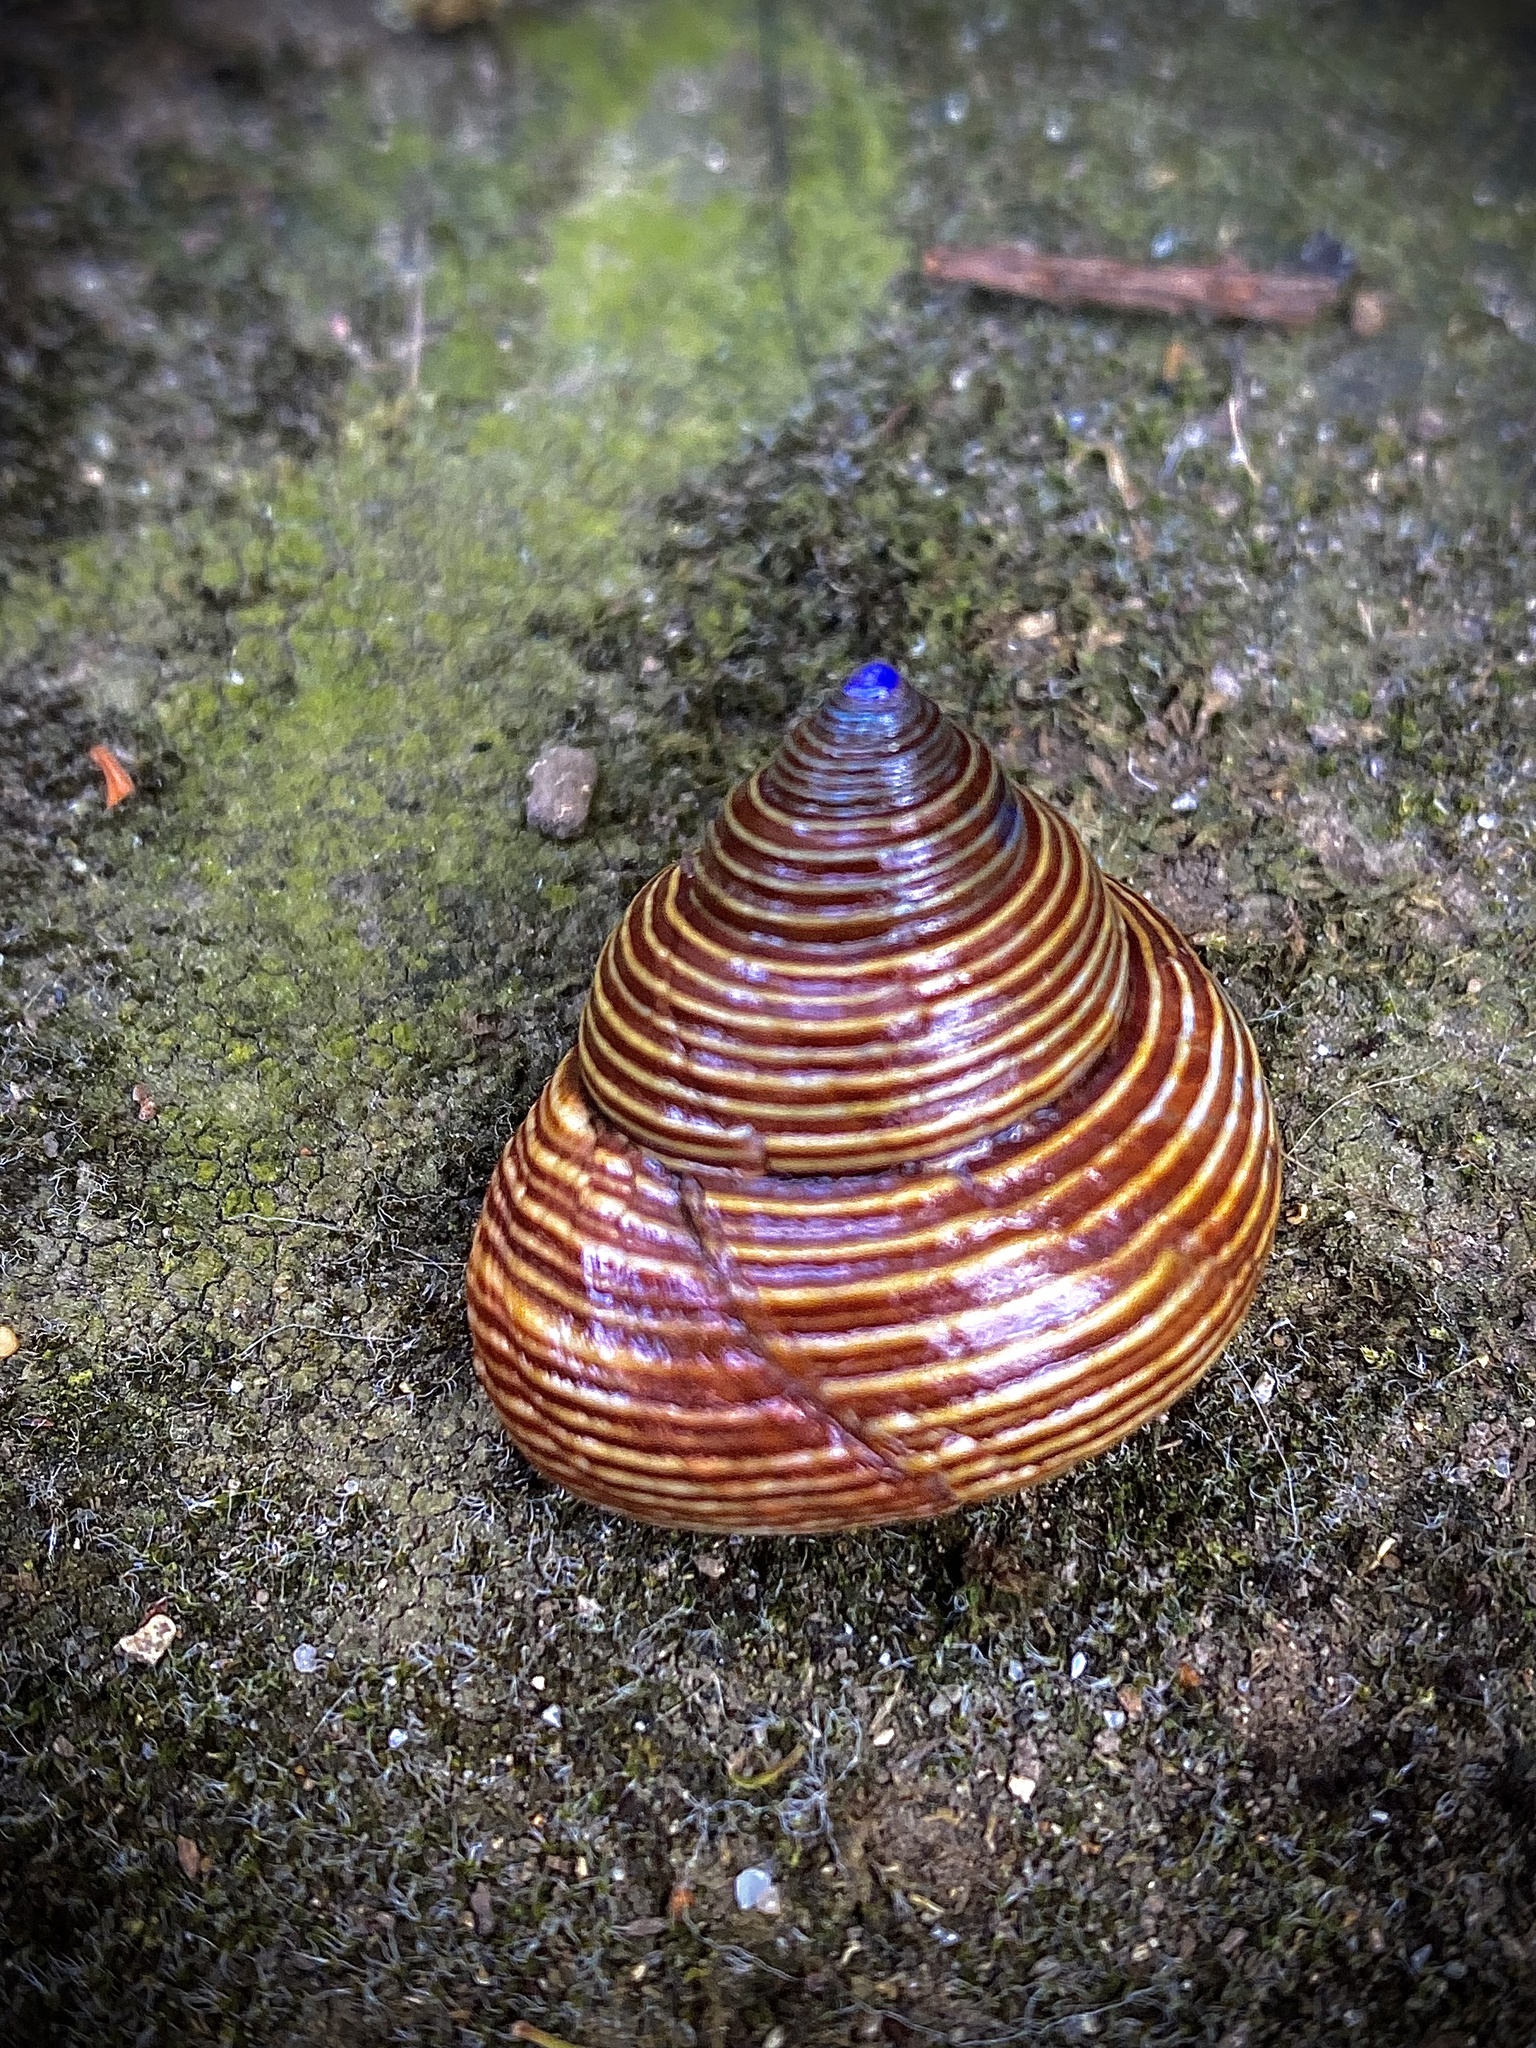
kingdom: Animalia
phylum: Mollusca
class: Gastropoda
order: Trochida
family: Calliostomatidae
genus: Calliostoma
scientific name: Calliostoma ligatum
